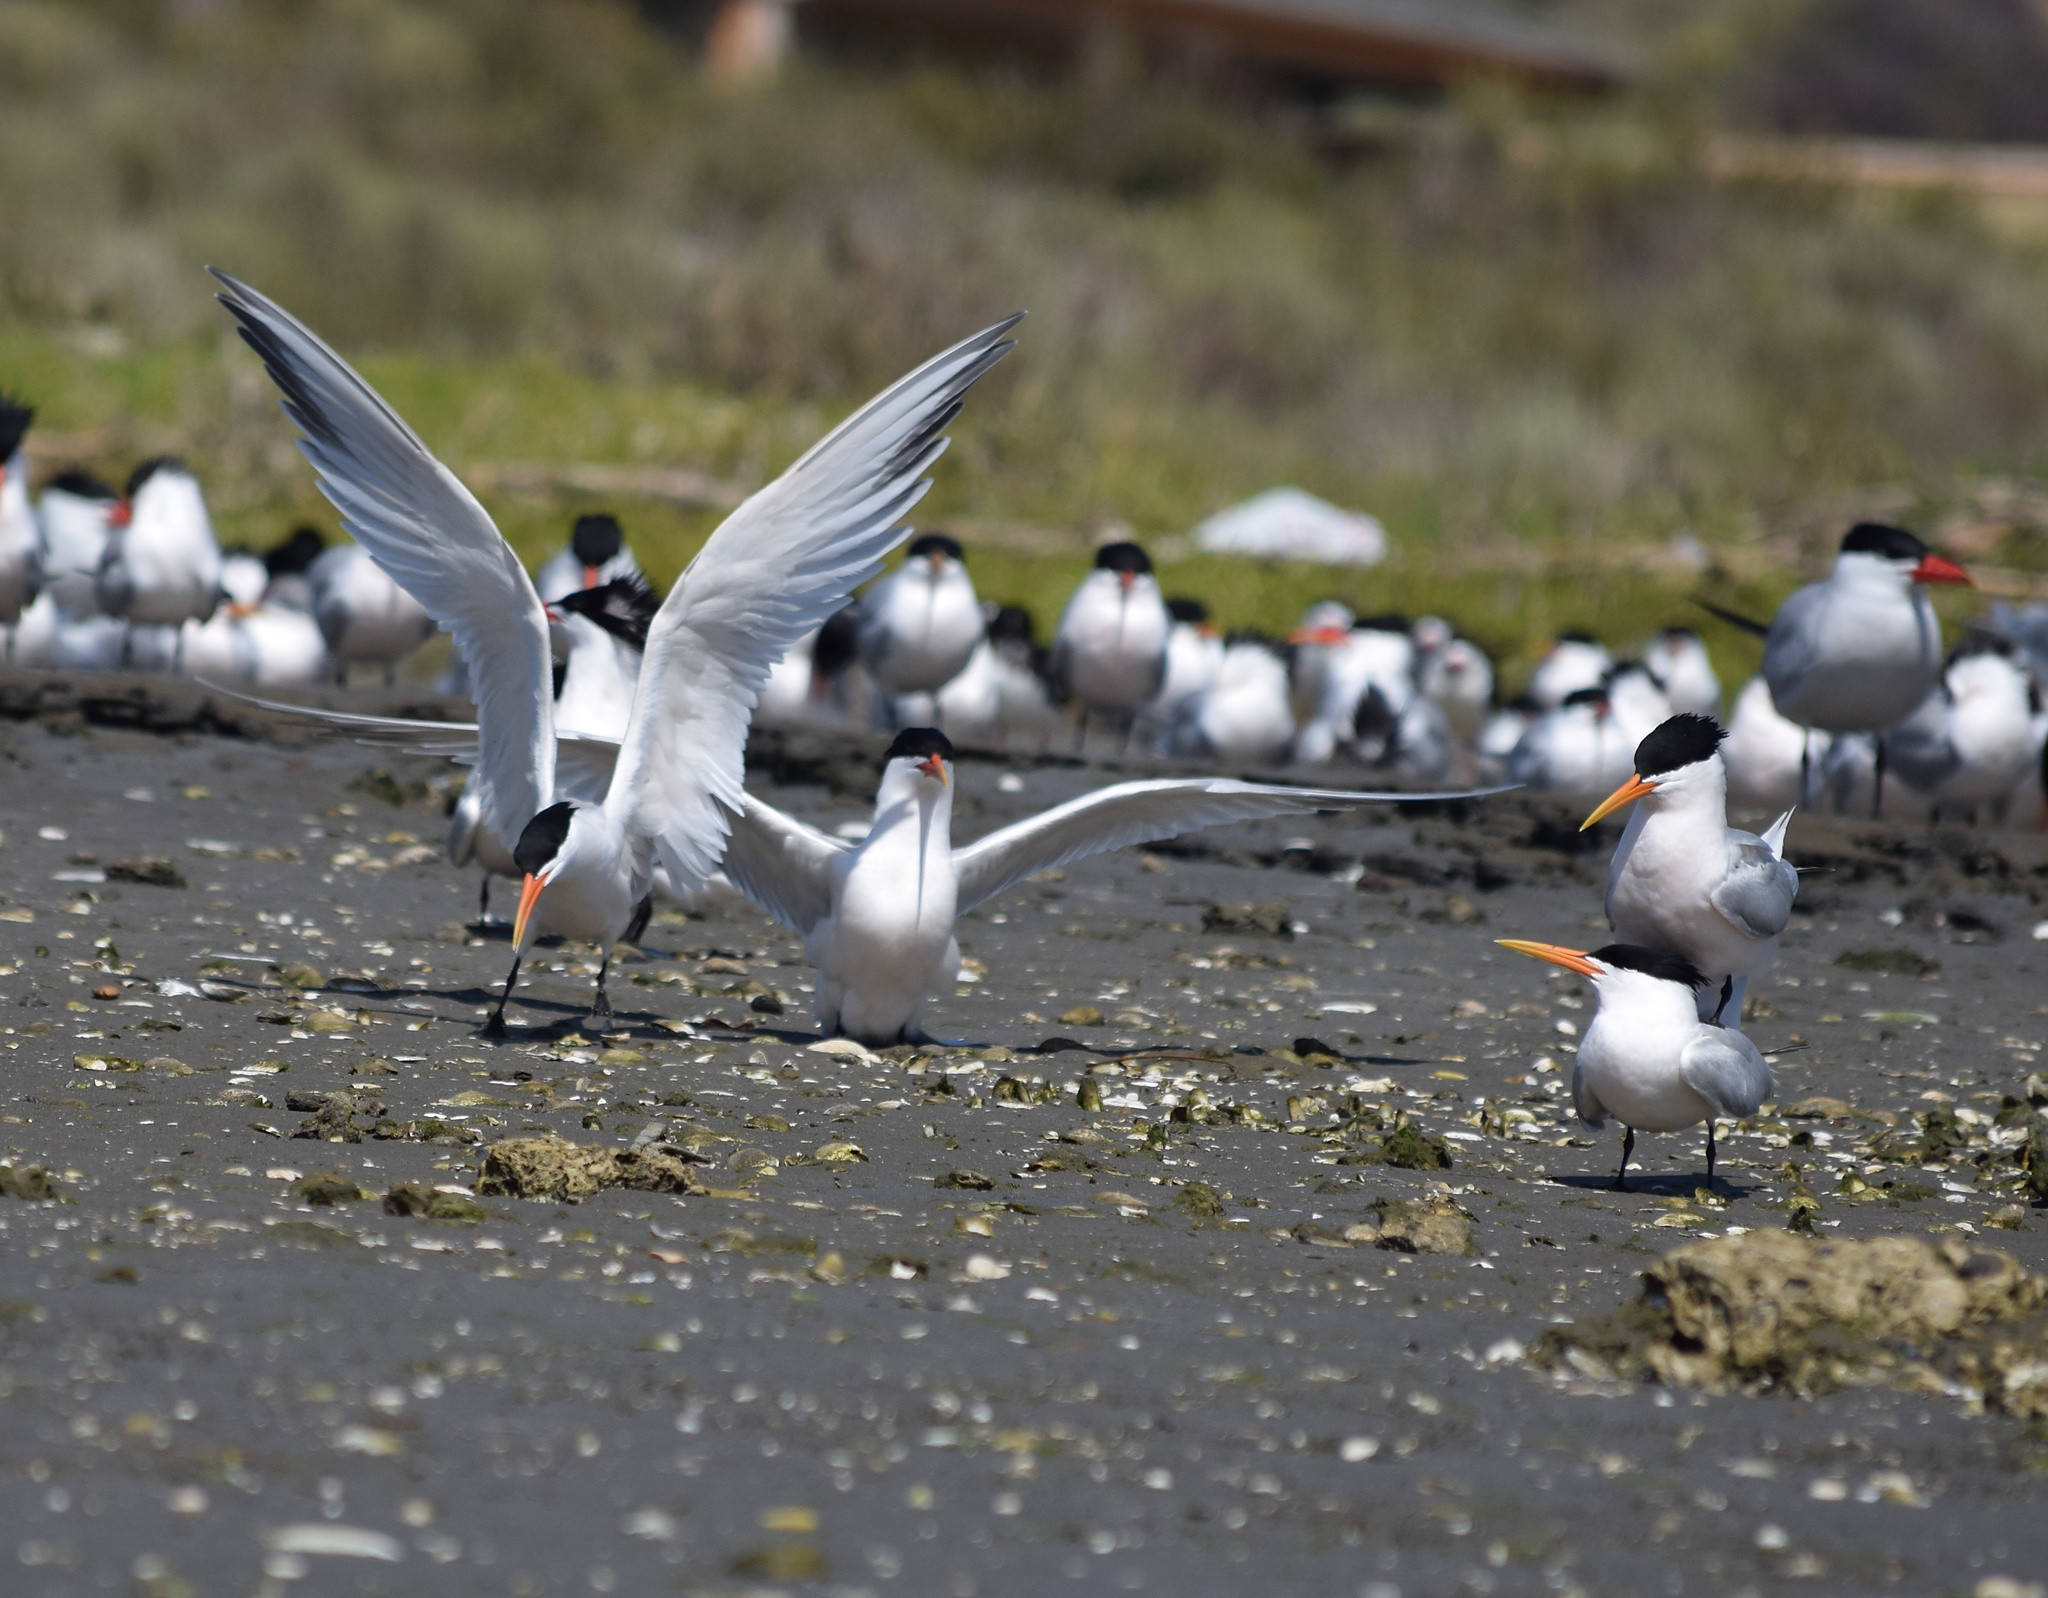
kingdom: Animalia
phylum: Chordata
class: Aves
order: Charadriiformes
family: Laridae
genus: Thalasseus
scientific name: Thalasseus elegans
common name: Elegant tern
